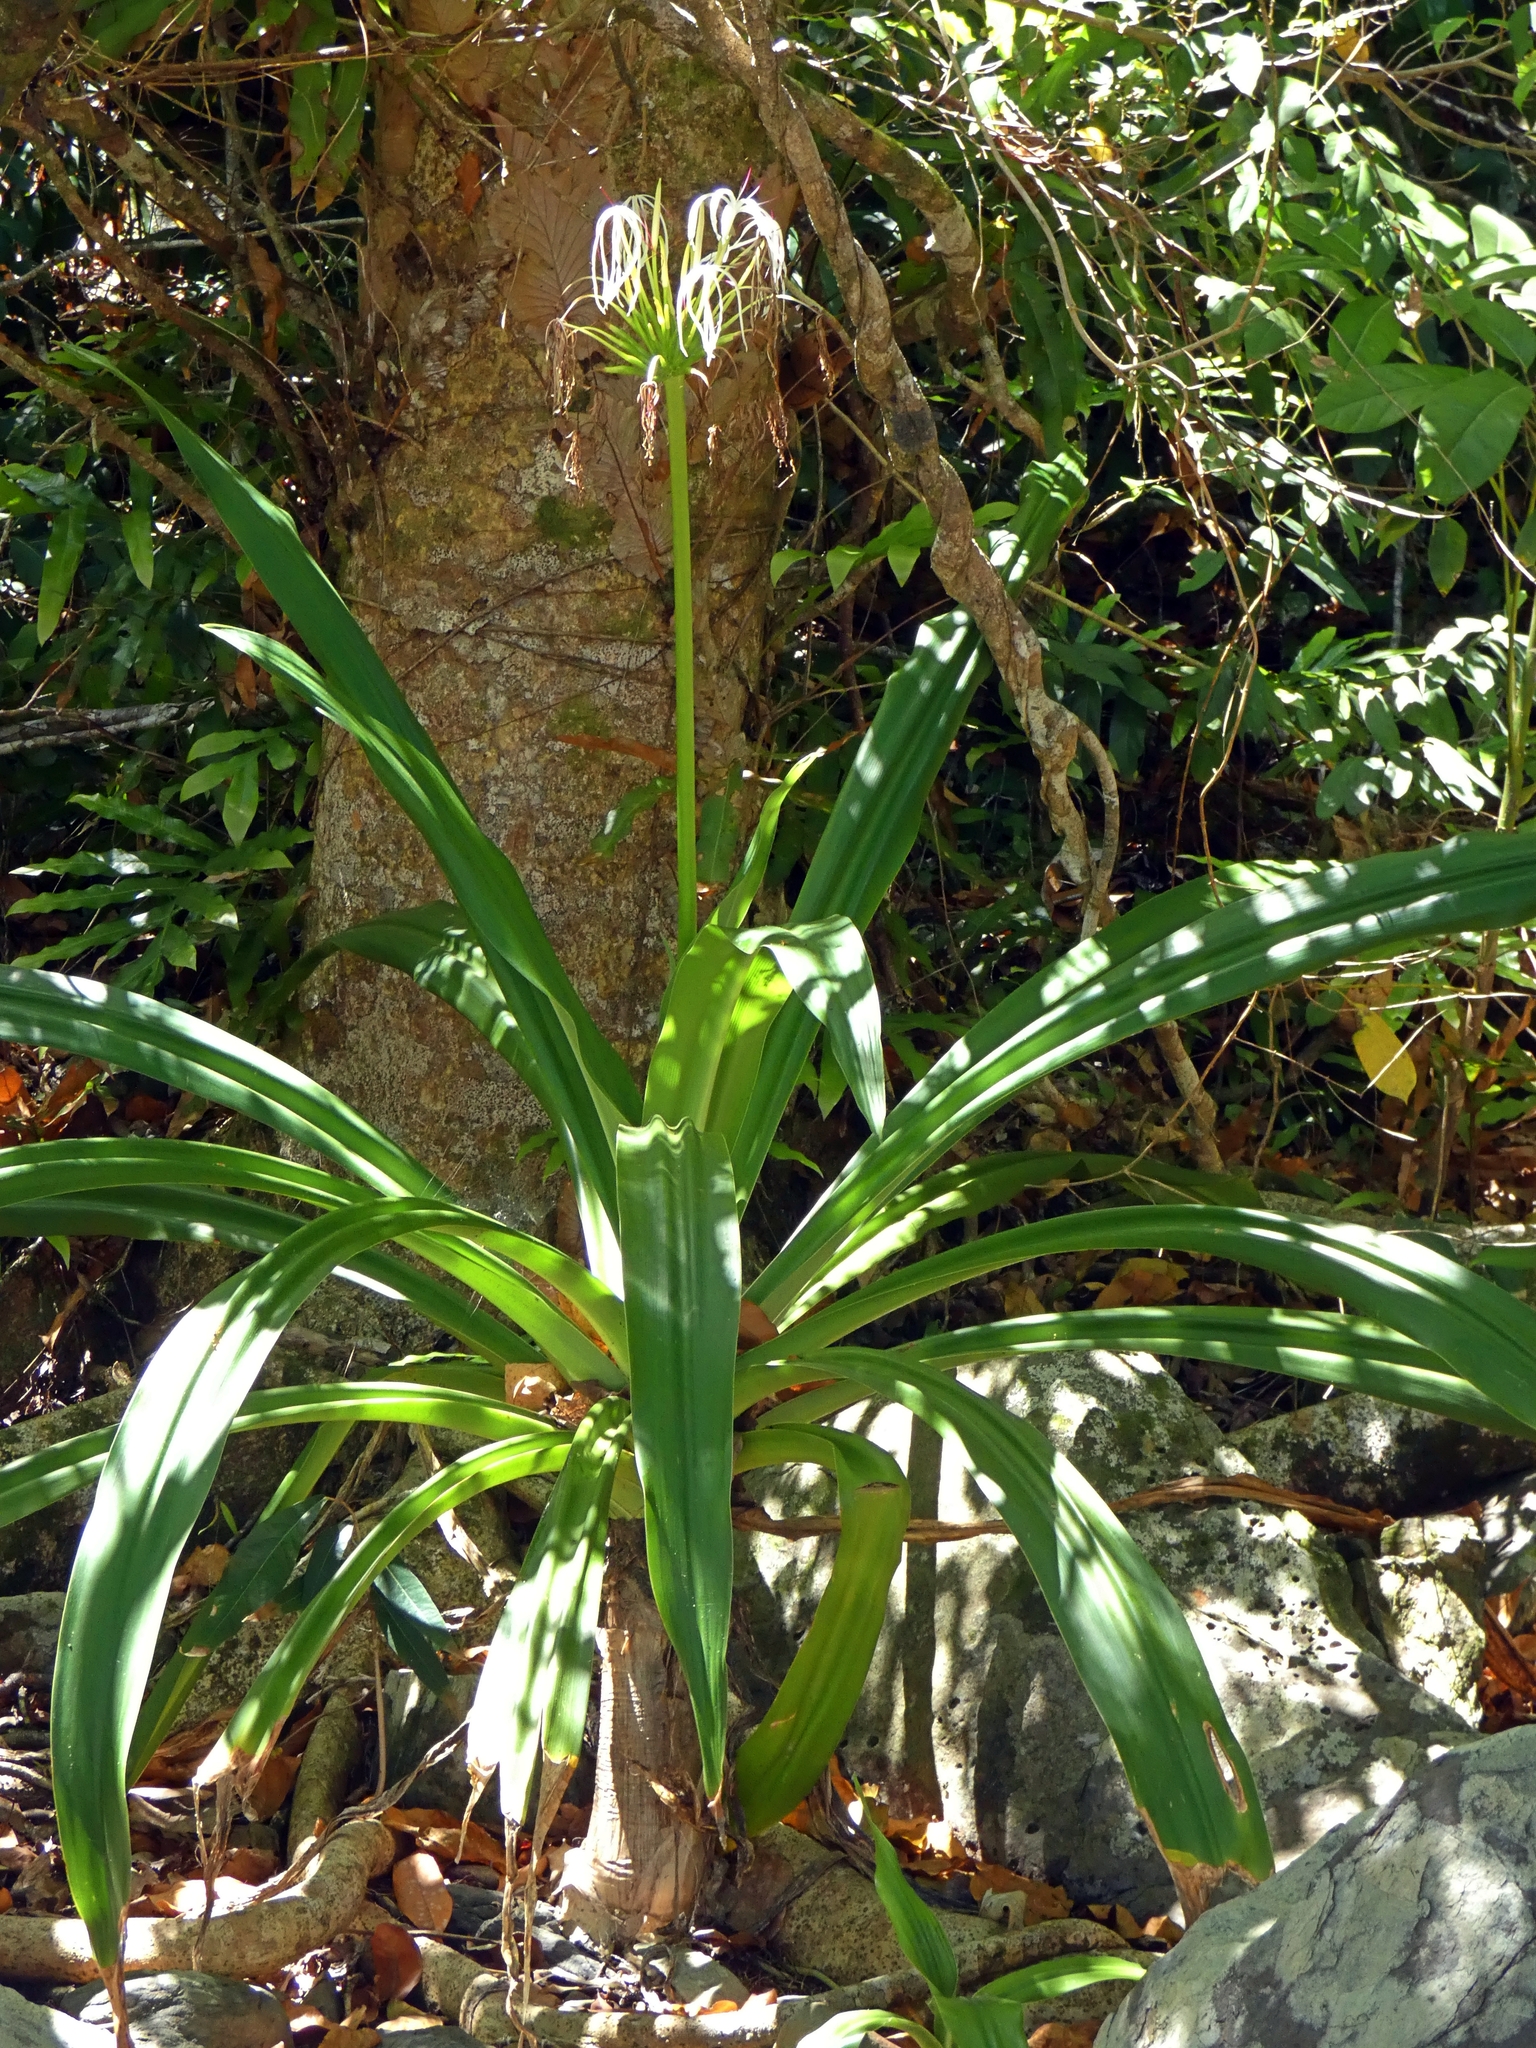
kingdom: Plantae
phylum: Tracheophyta
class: Liliopsida
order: Asparagales
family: Amaryllidaceae
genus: Crinum
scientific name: Crinum pedunculatum
